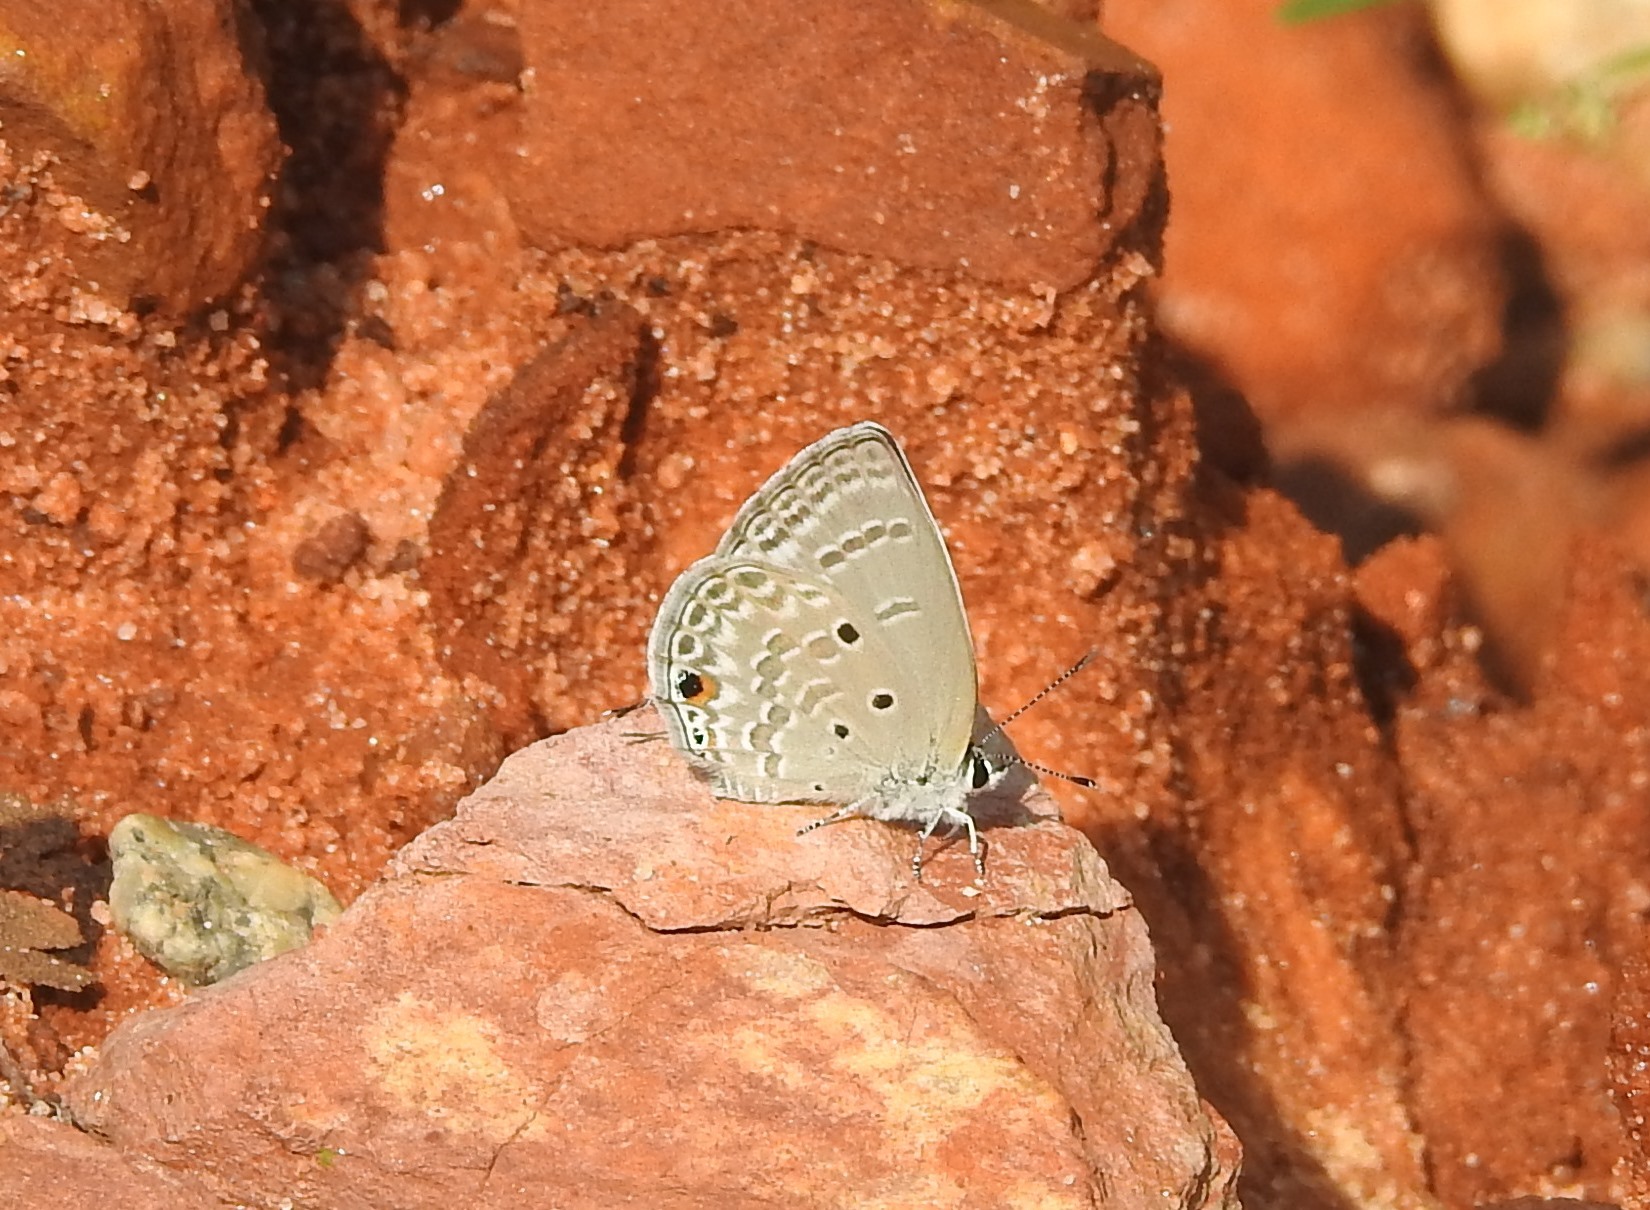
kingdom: Animalia
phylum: Arthropoda
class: Insecta
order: Lepidoptera
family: Lycaenidae
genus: Luthrodes
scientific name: Luthrodes pandava
